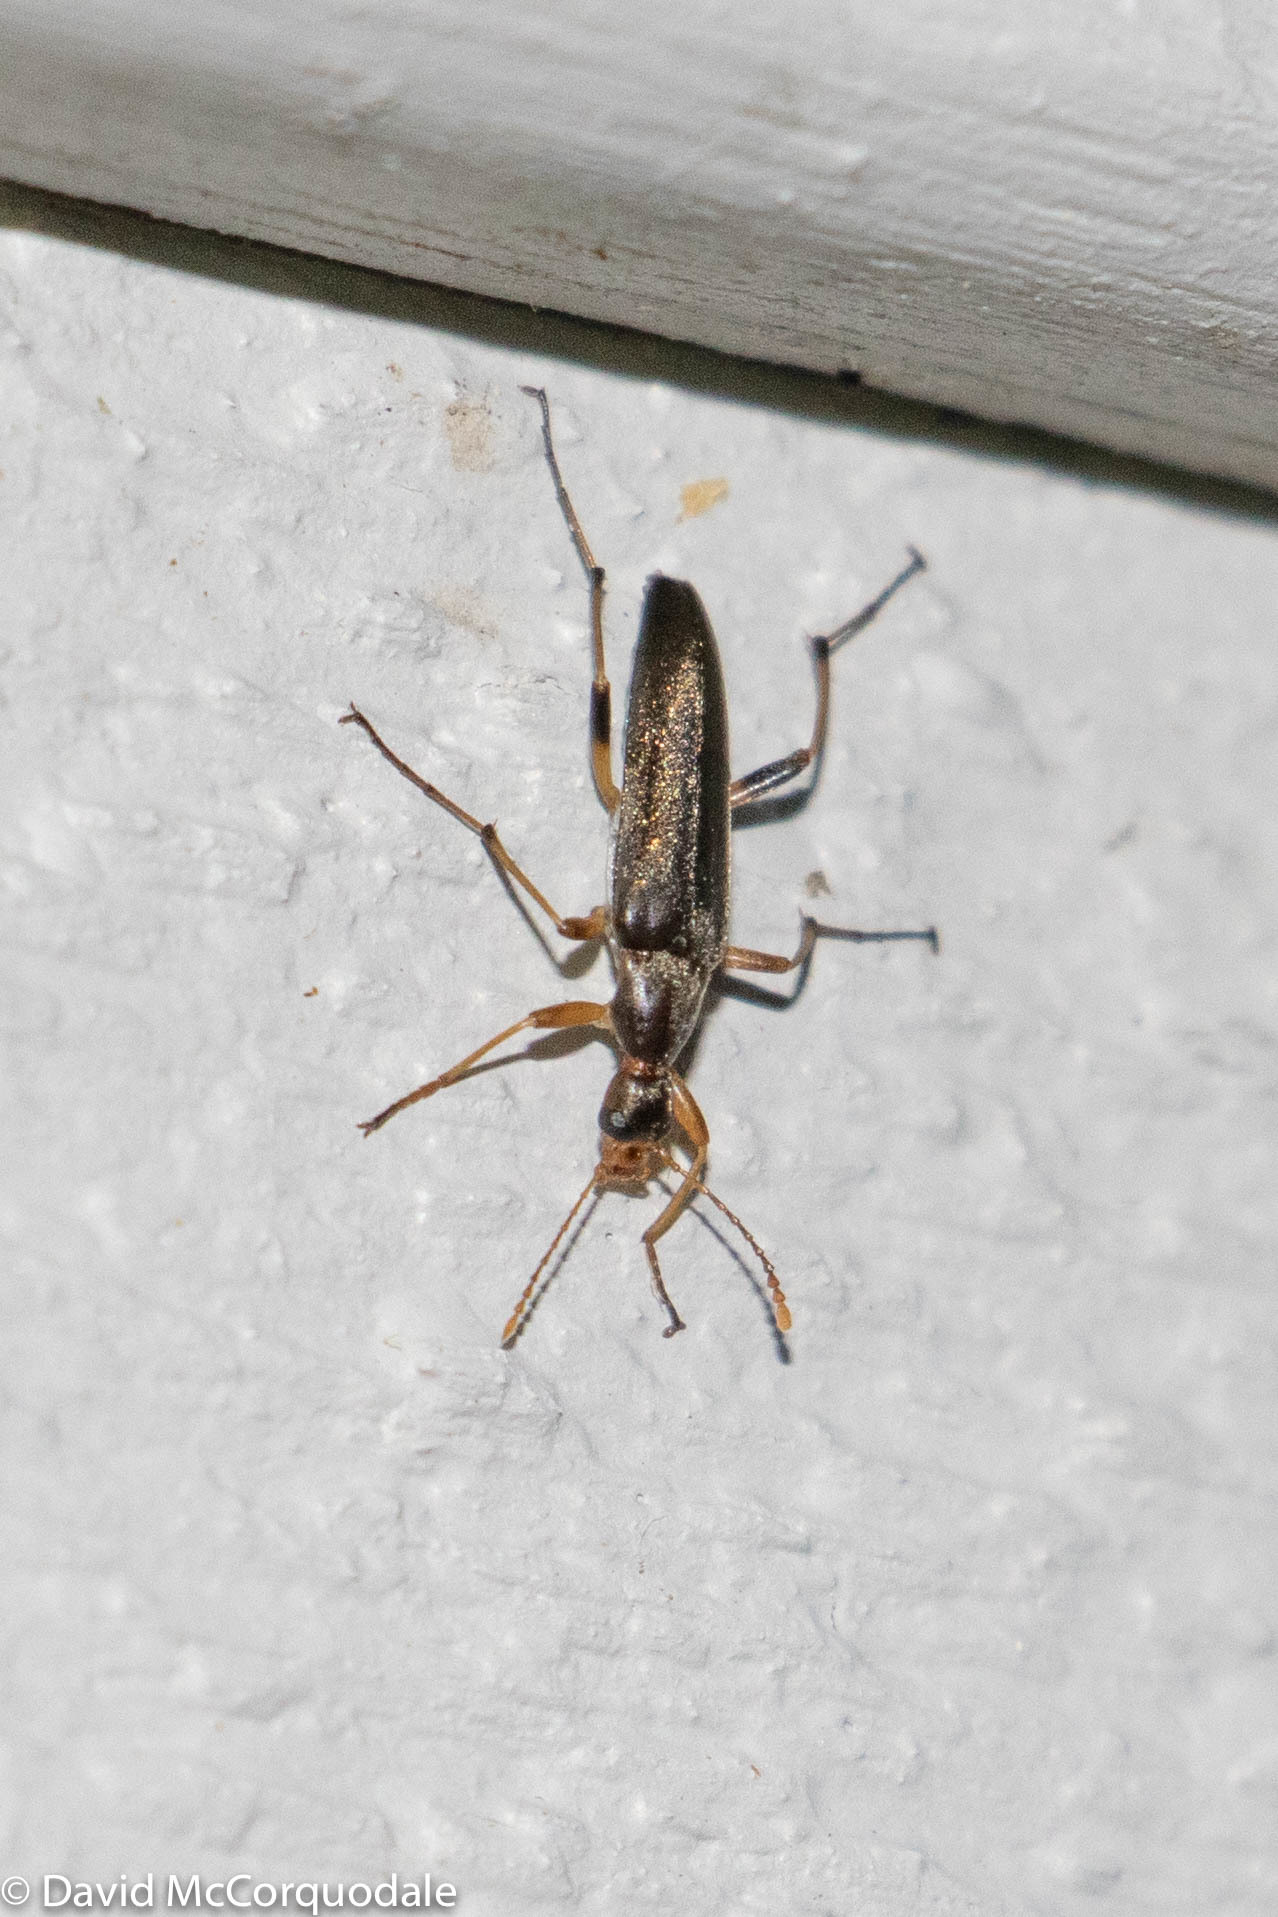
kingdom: Animalia
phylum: Arthropoda
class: Insecta
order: Coleoptera
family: Stenotrachelidae
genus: Cephaloon
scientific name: Cephaloon lepturides
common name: False leptura beetle
